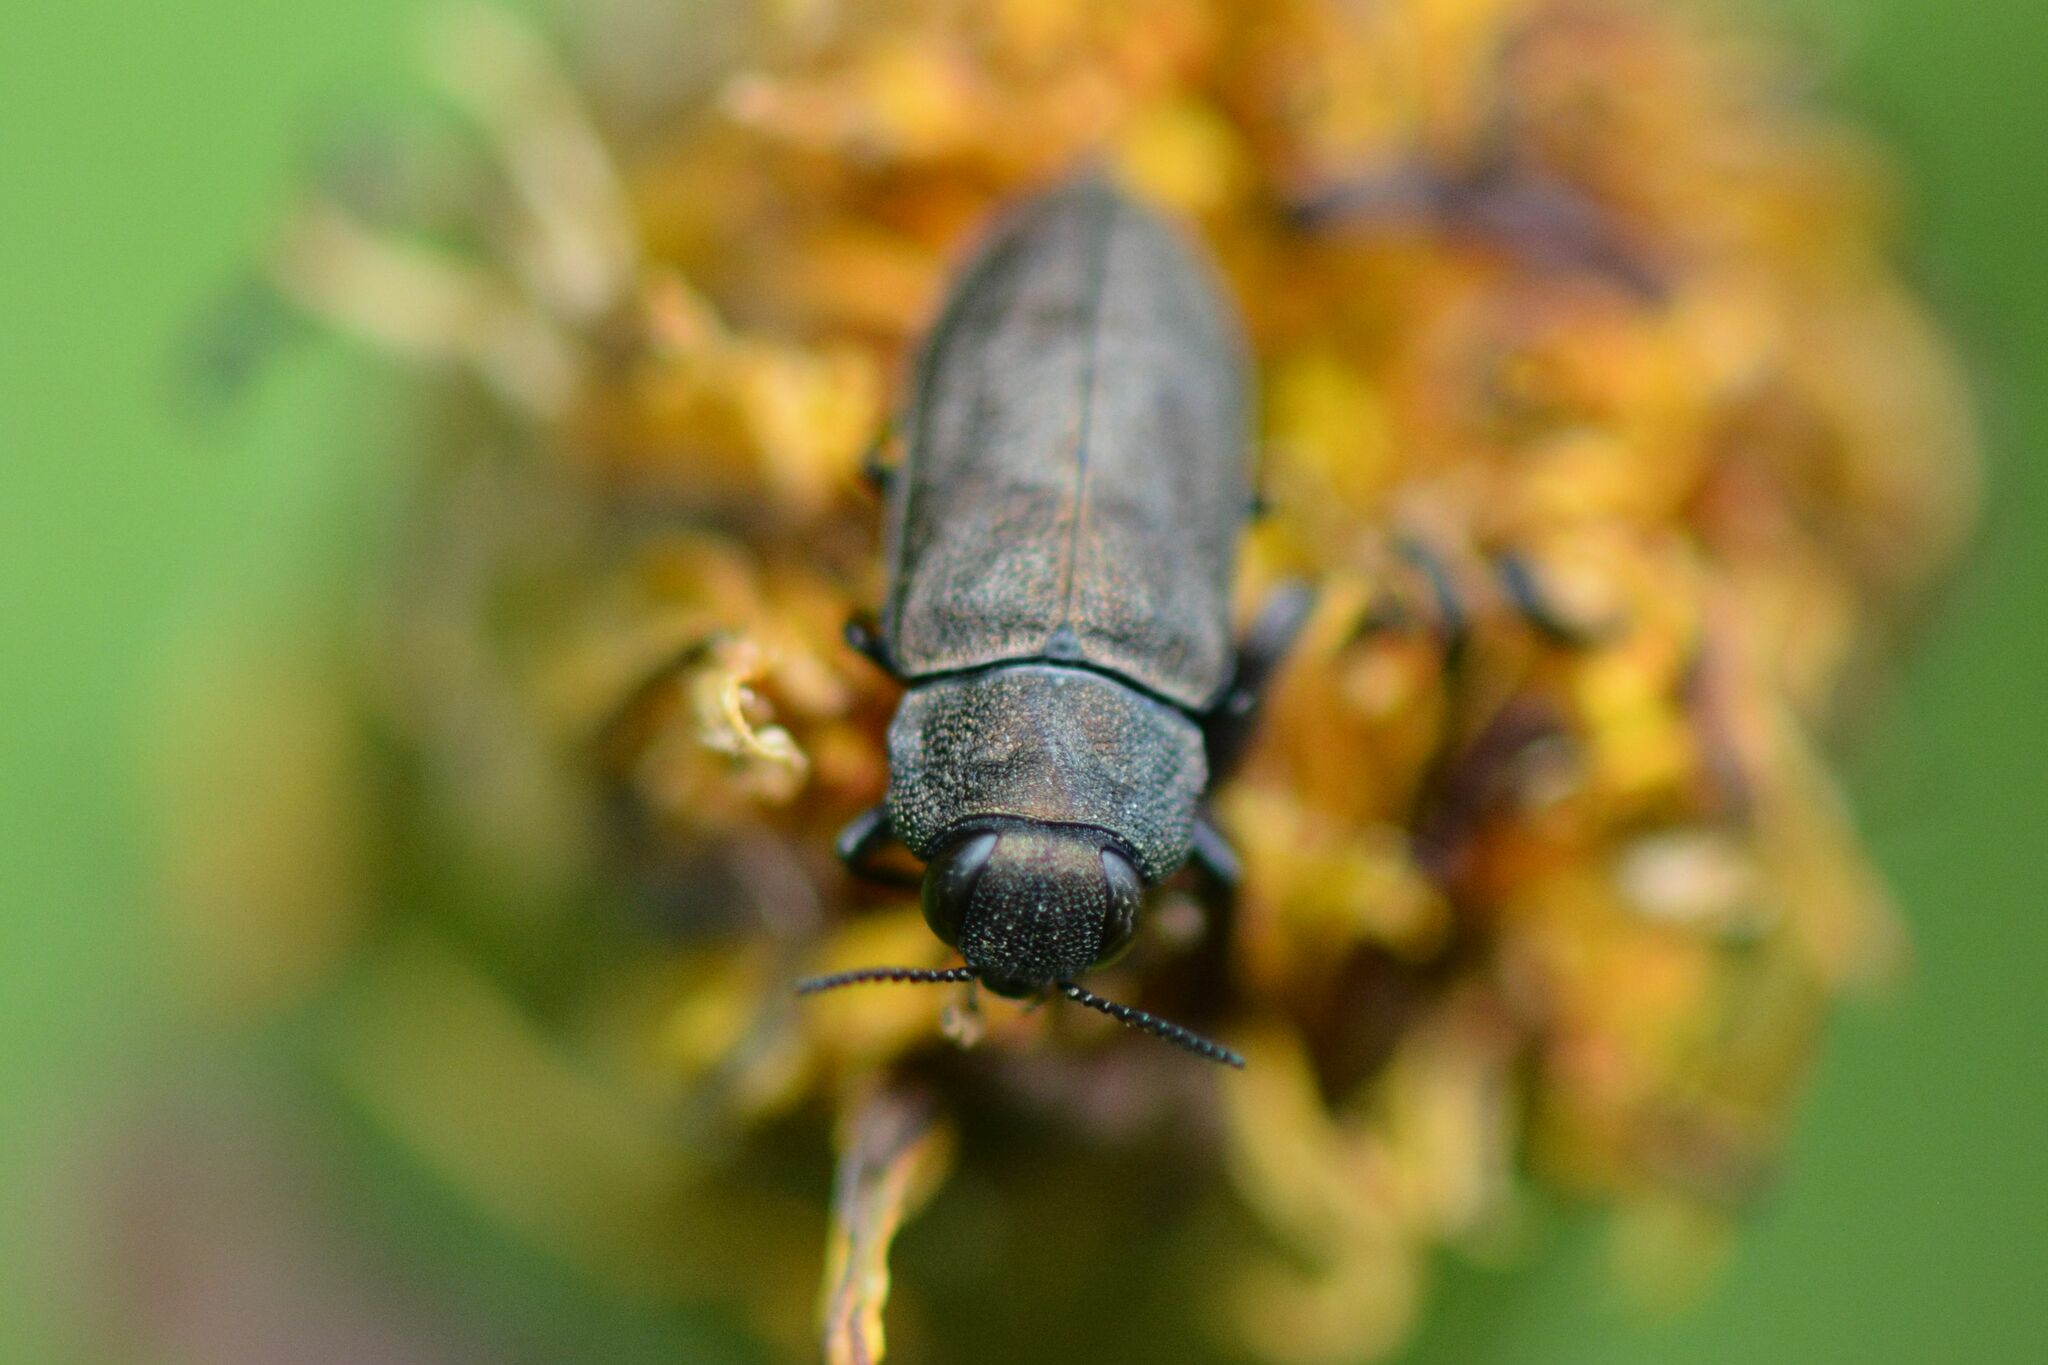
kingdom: Animalia
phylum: Arthropoda
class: Insecta
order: Coleoptera
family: Buprestidae
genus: Anthaxia
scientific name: Anthaxia quadripunctata
